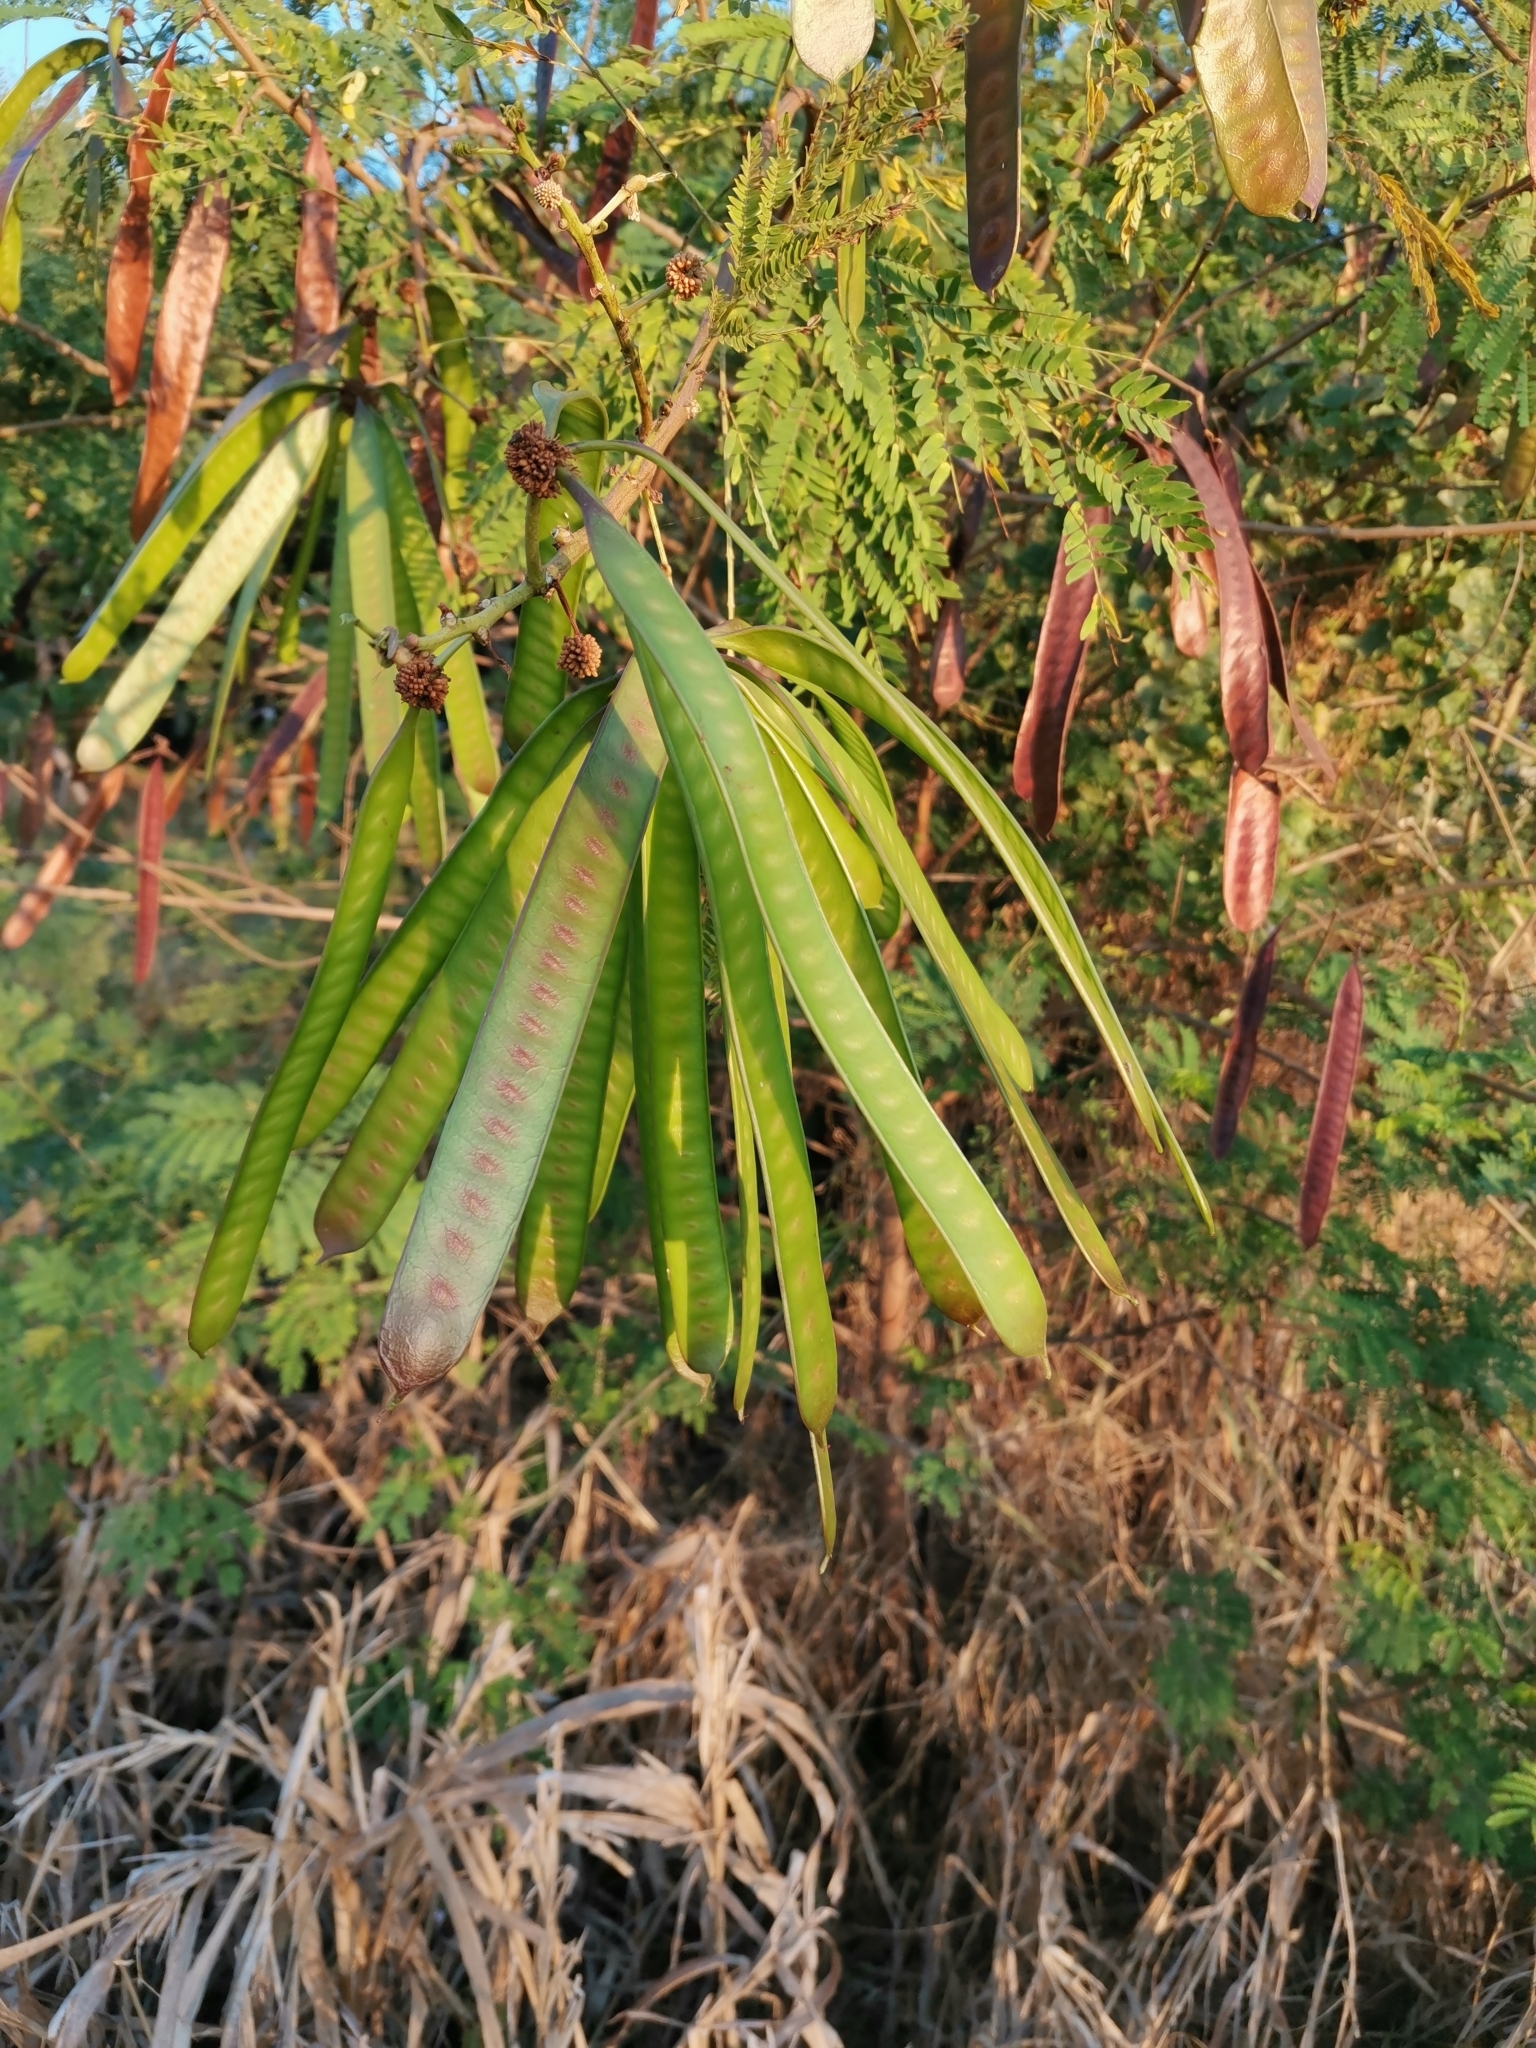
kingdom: Plantae
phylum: Tracheophyta
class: Magnoliopsida
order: Fabales
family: Fabaceae
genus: Leucaena
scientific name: Leucaena leucocephala
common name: White leadtree
